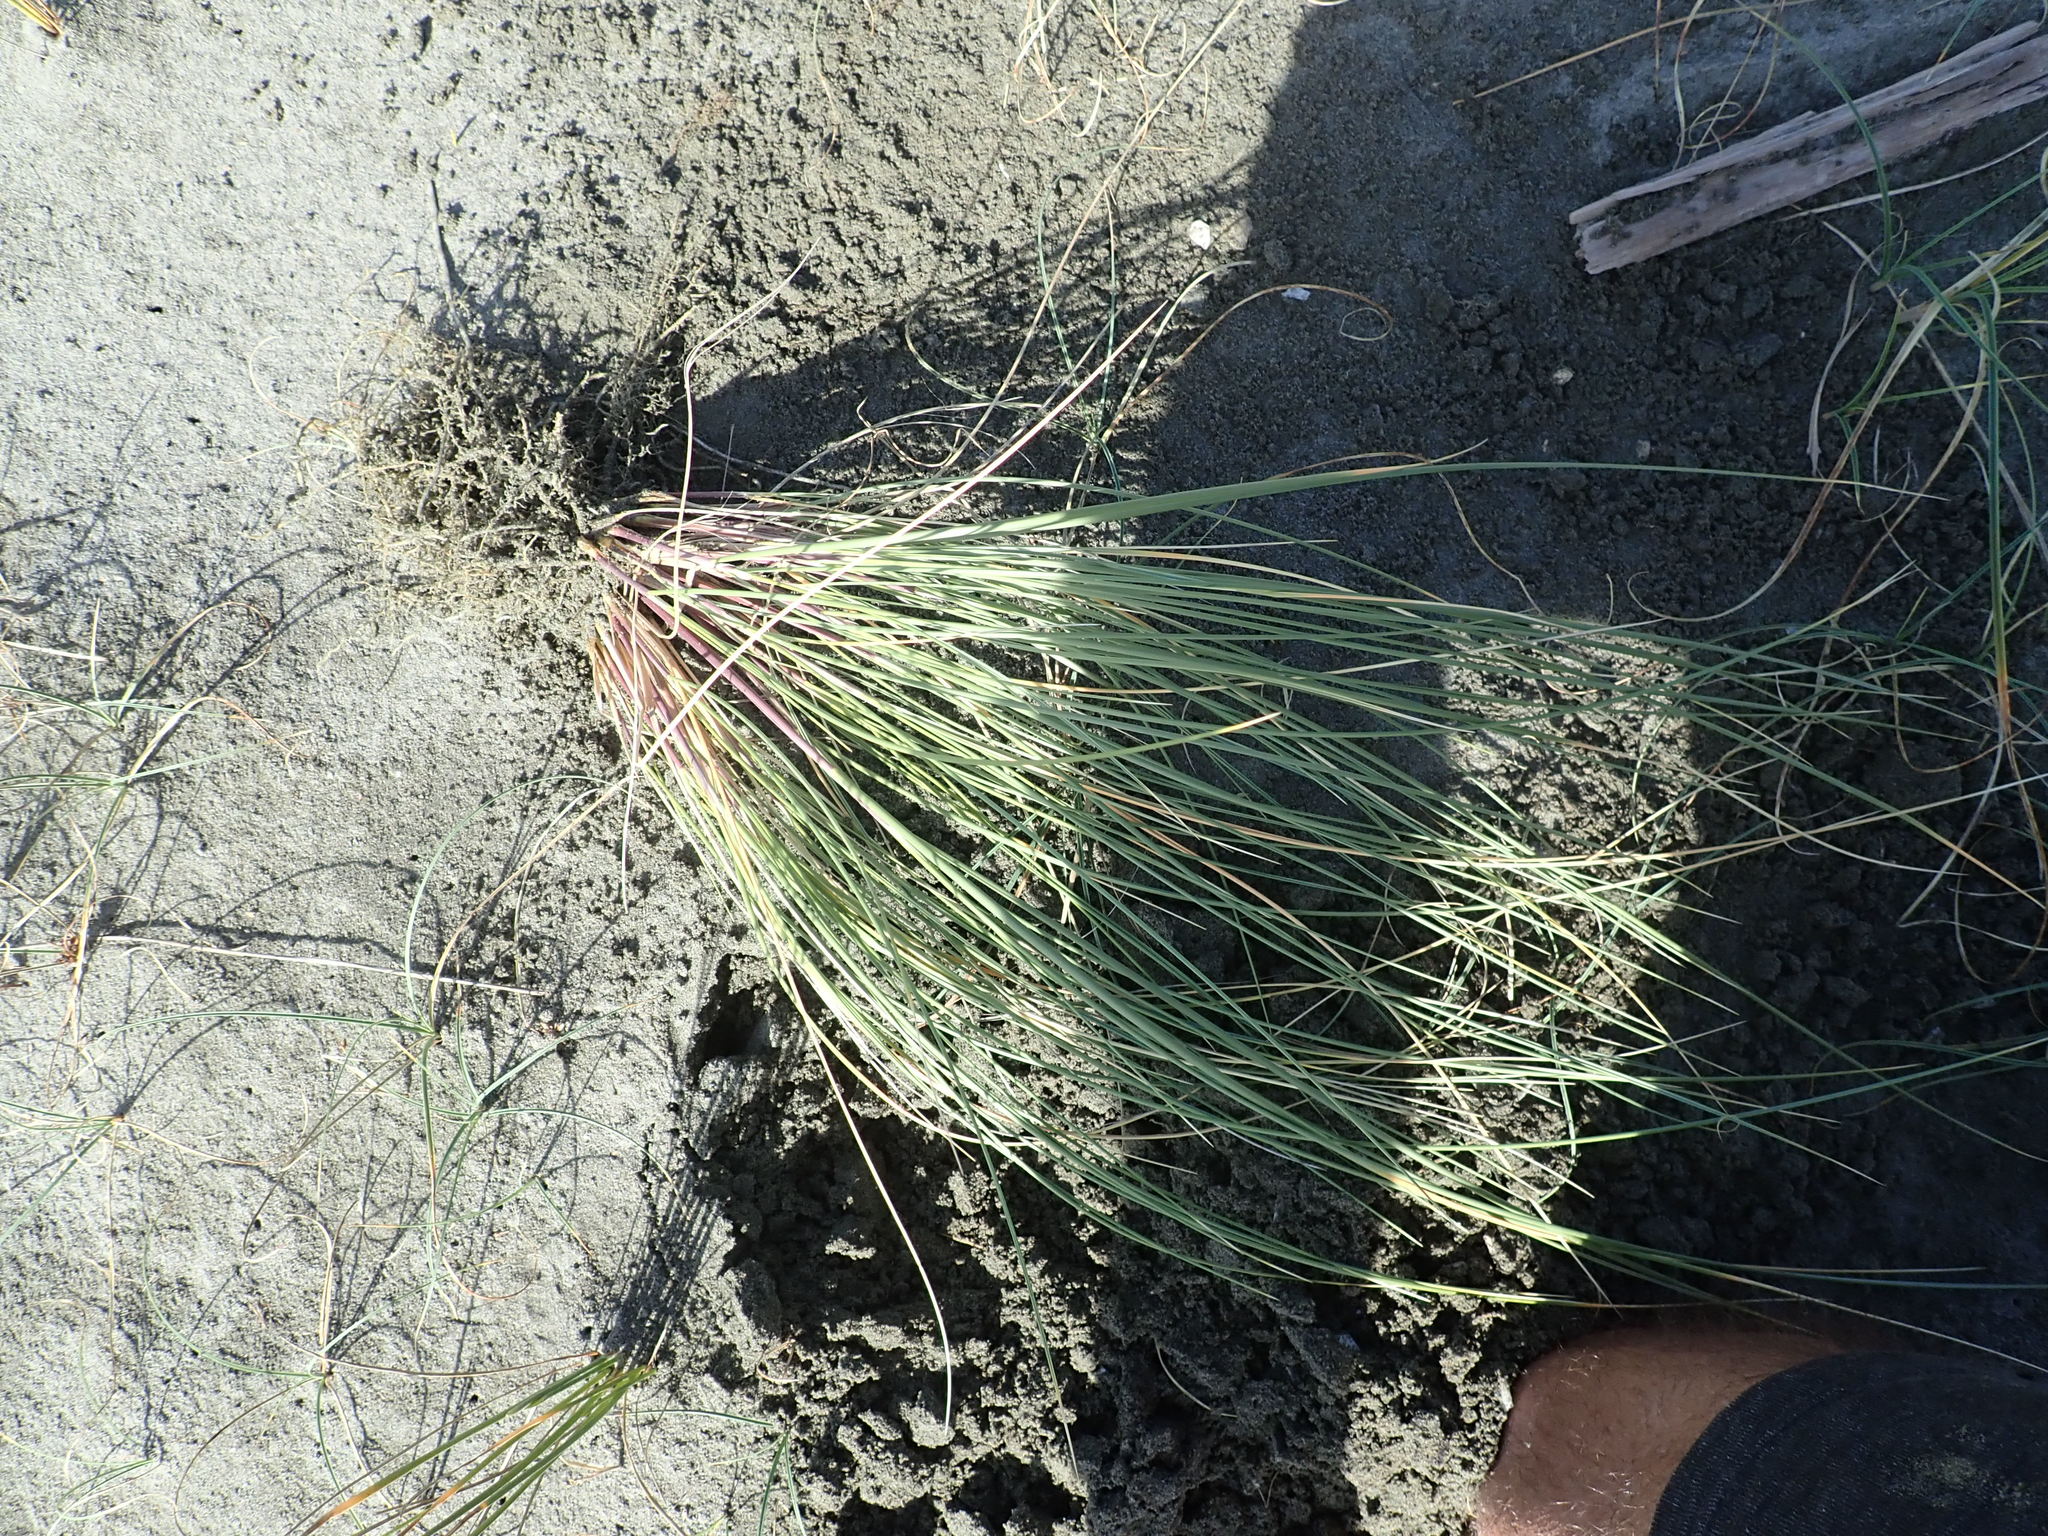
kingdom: Plantae
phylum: Tracheophyta
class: Liliopsida
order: Poales
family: Poaceae
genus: Calamagrostis
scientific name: Calamagrostis arenaria
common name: European beachgrass
